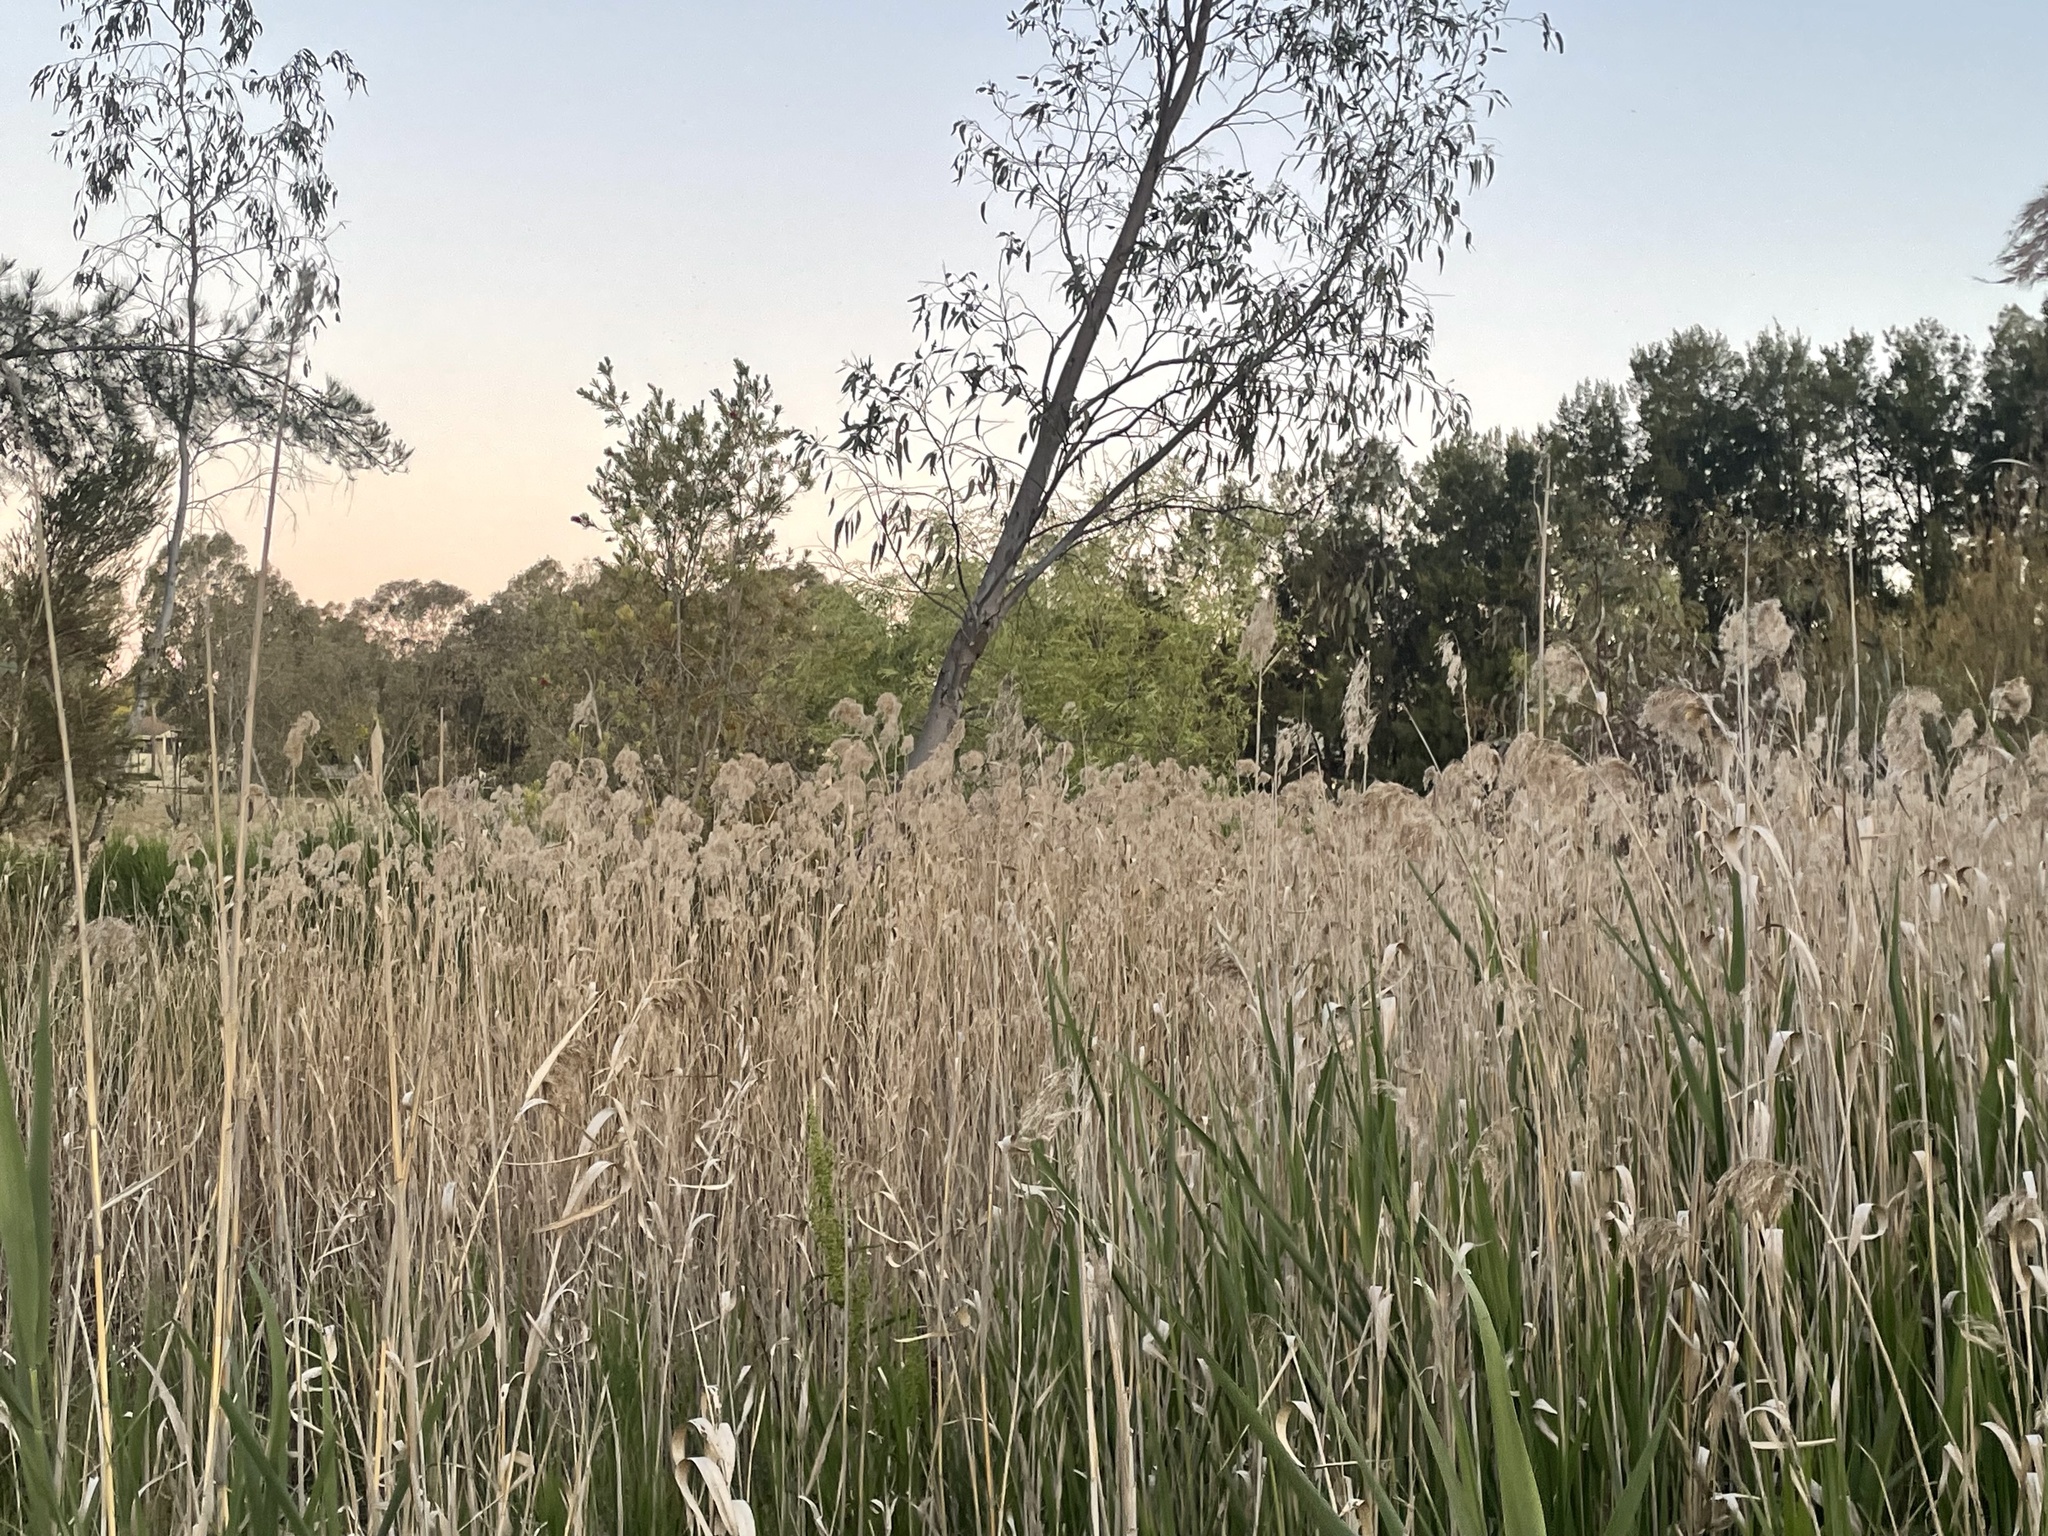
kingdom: Plantae
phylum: Tracheophyta
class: Liliopsida
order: Poales
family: Poaceae
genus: Phragmites
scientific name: Phragmites australis
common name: Common reed
